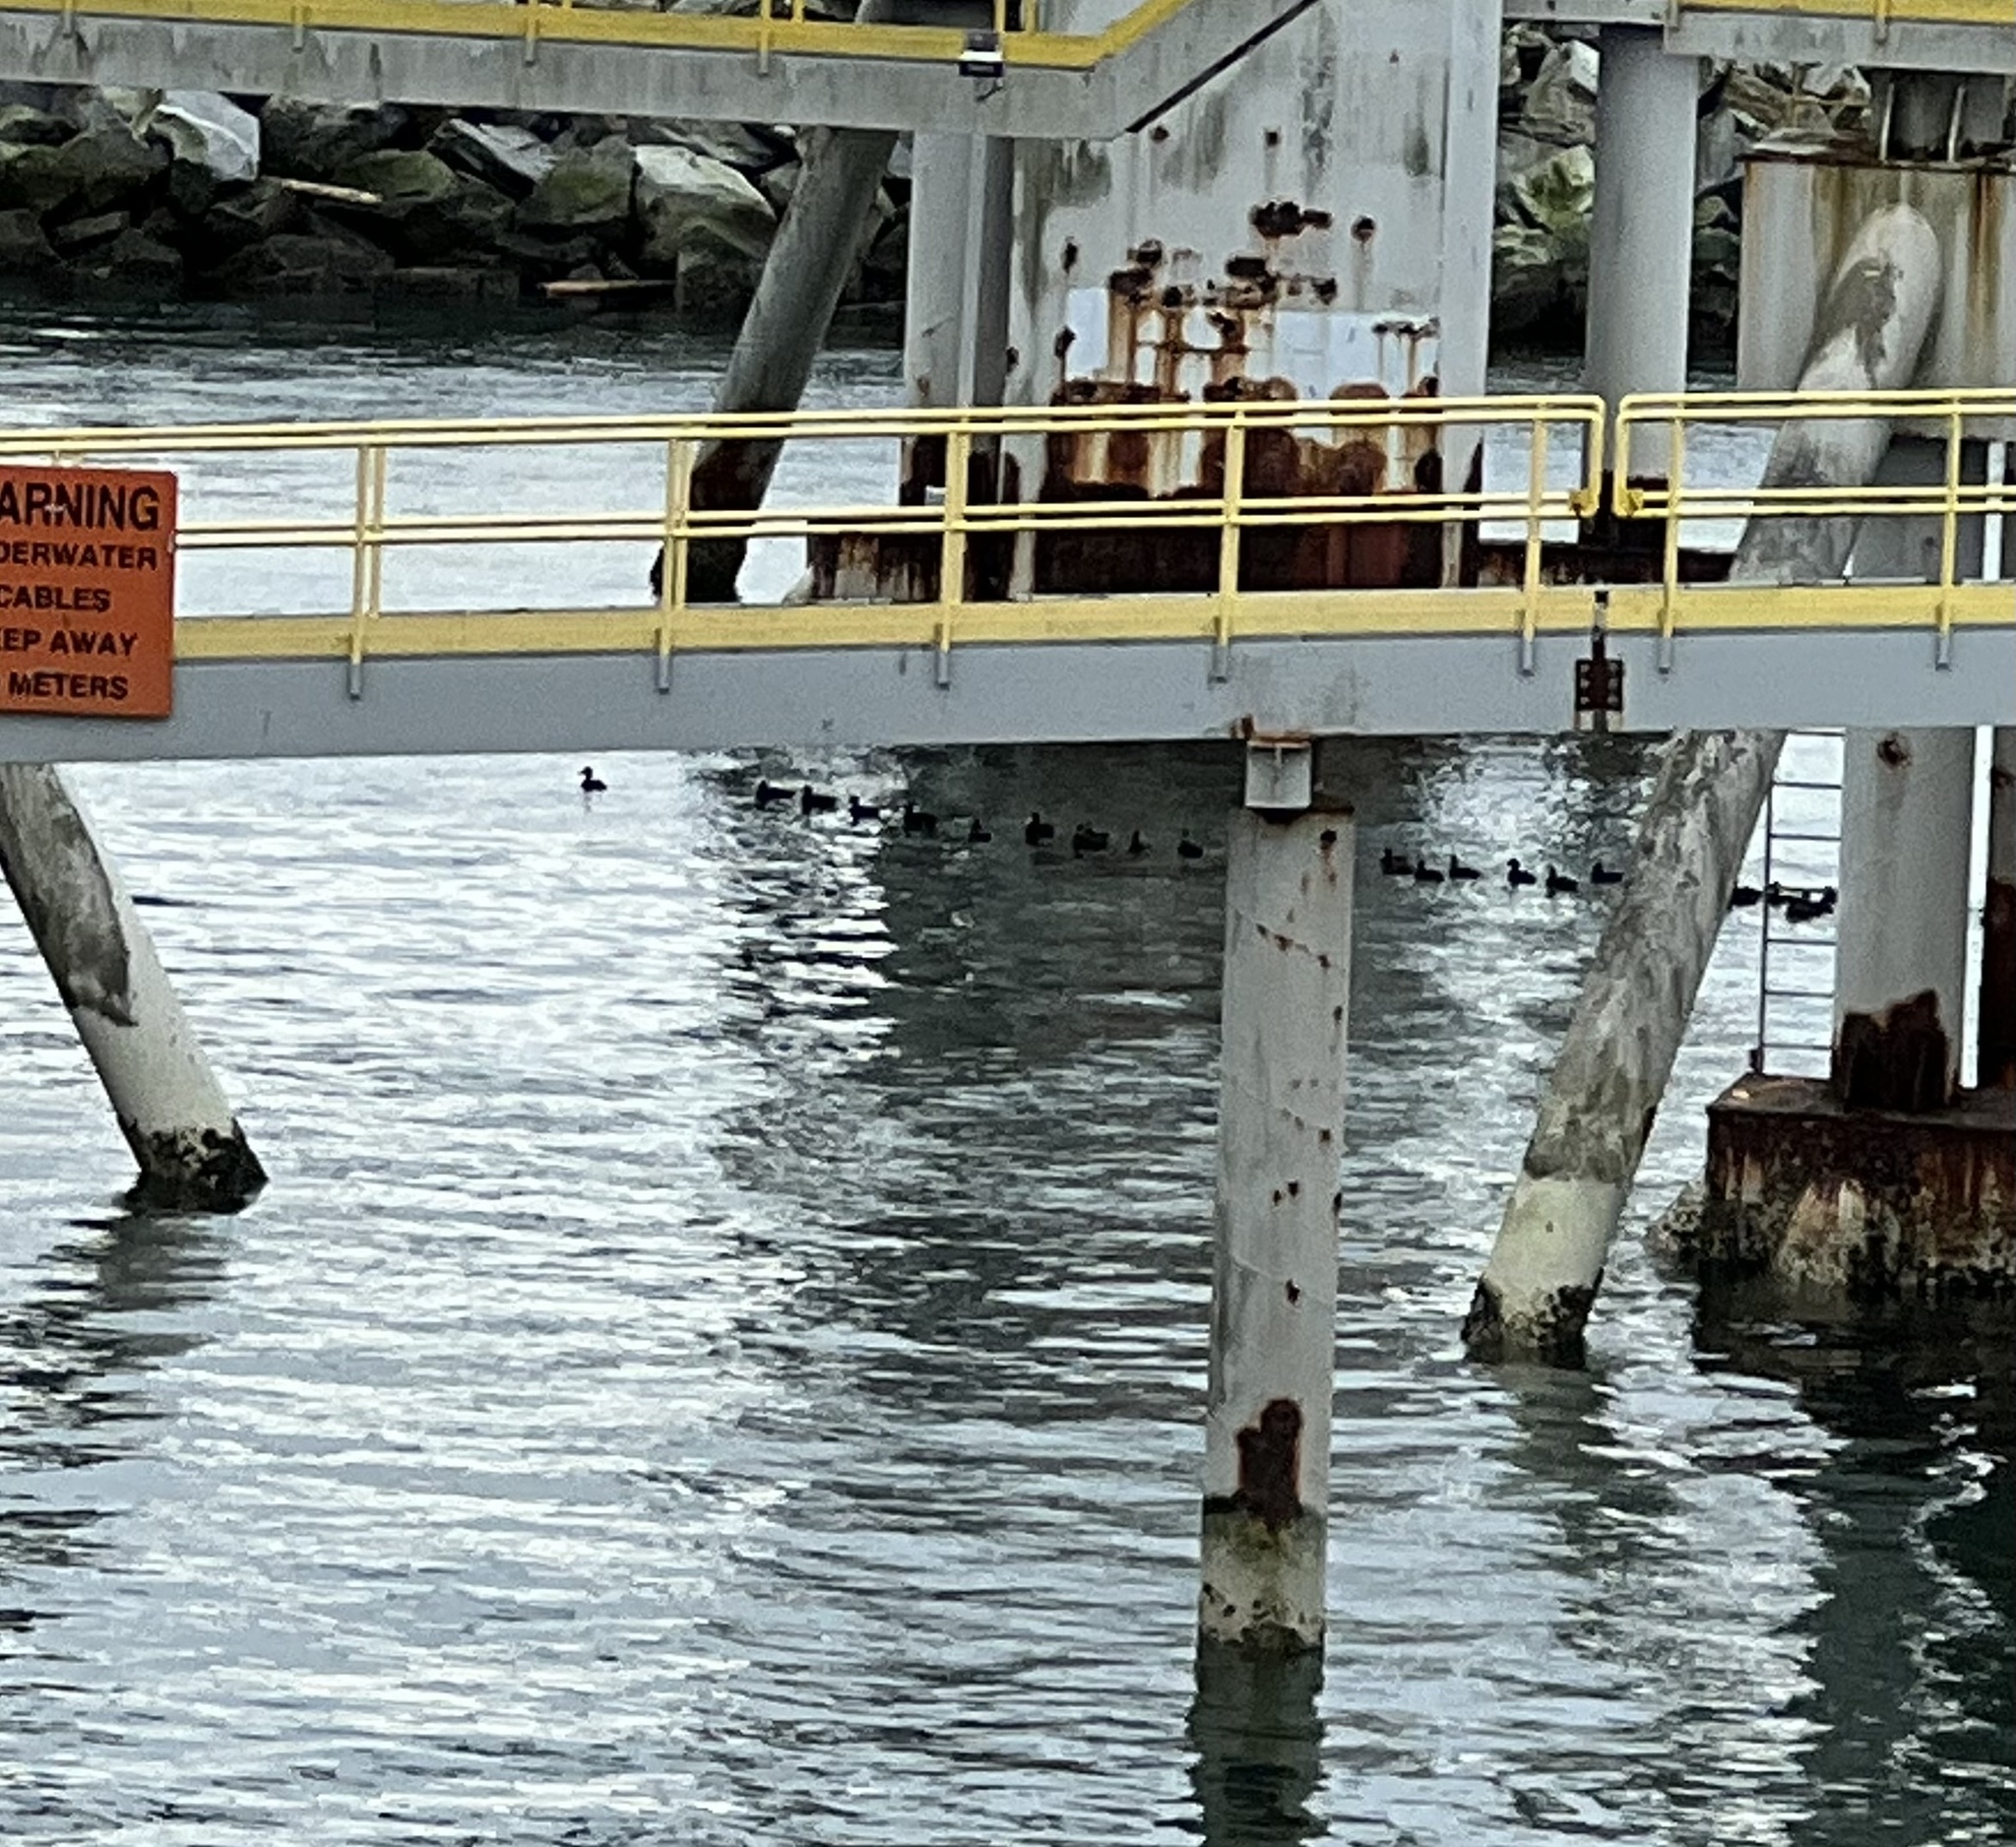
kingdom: Animalia
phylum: Chordata
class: Aves
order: Anseriformes
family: Anatidae
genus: Melanitta
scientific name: Melanitta perspicillata
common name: Surf scoter
